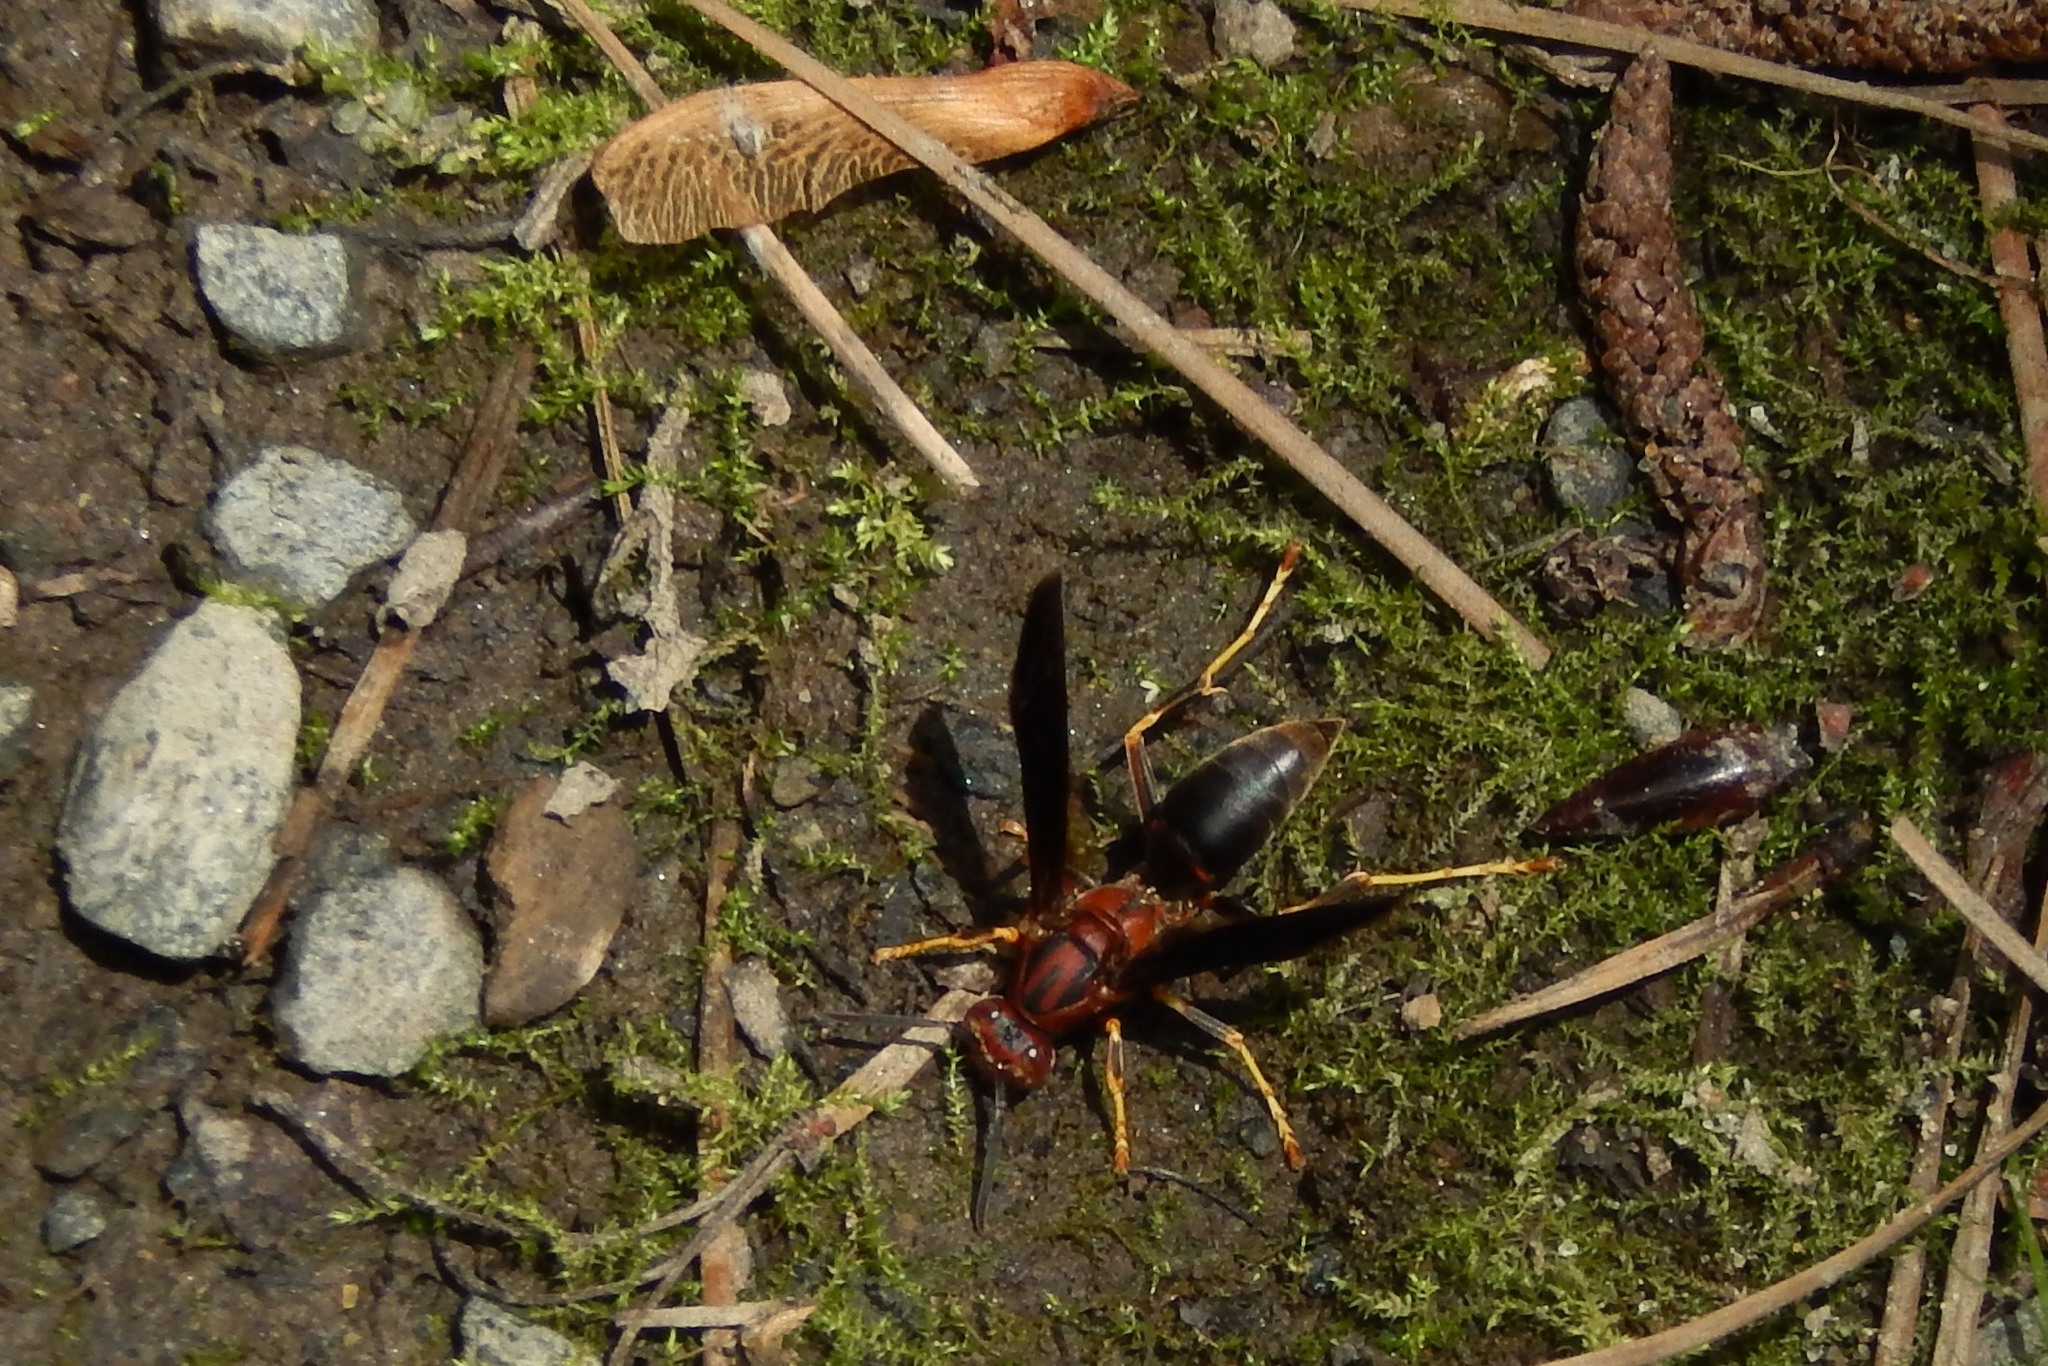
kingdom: Animalia
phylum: Arthropoda
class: Insecta
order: Hymenoptera
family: Eumenidae
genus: Polistes
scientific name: Polistes metricus
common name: Metric paper wasp
